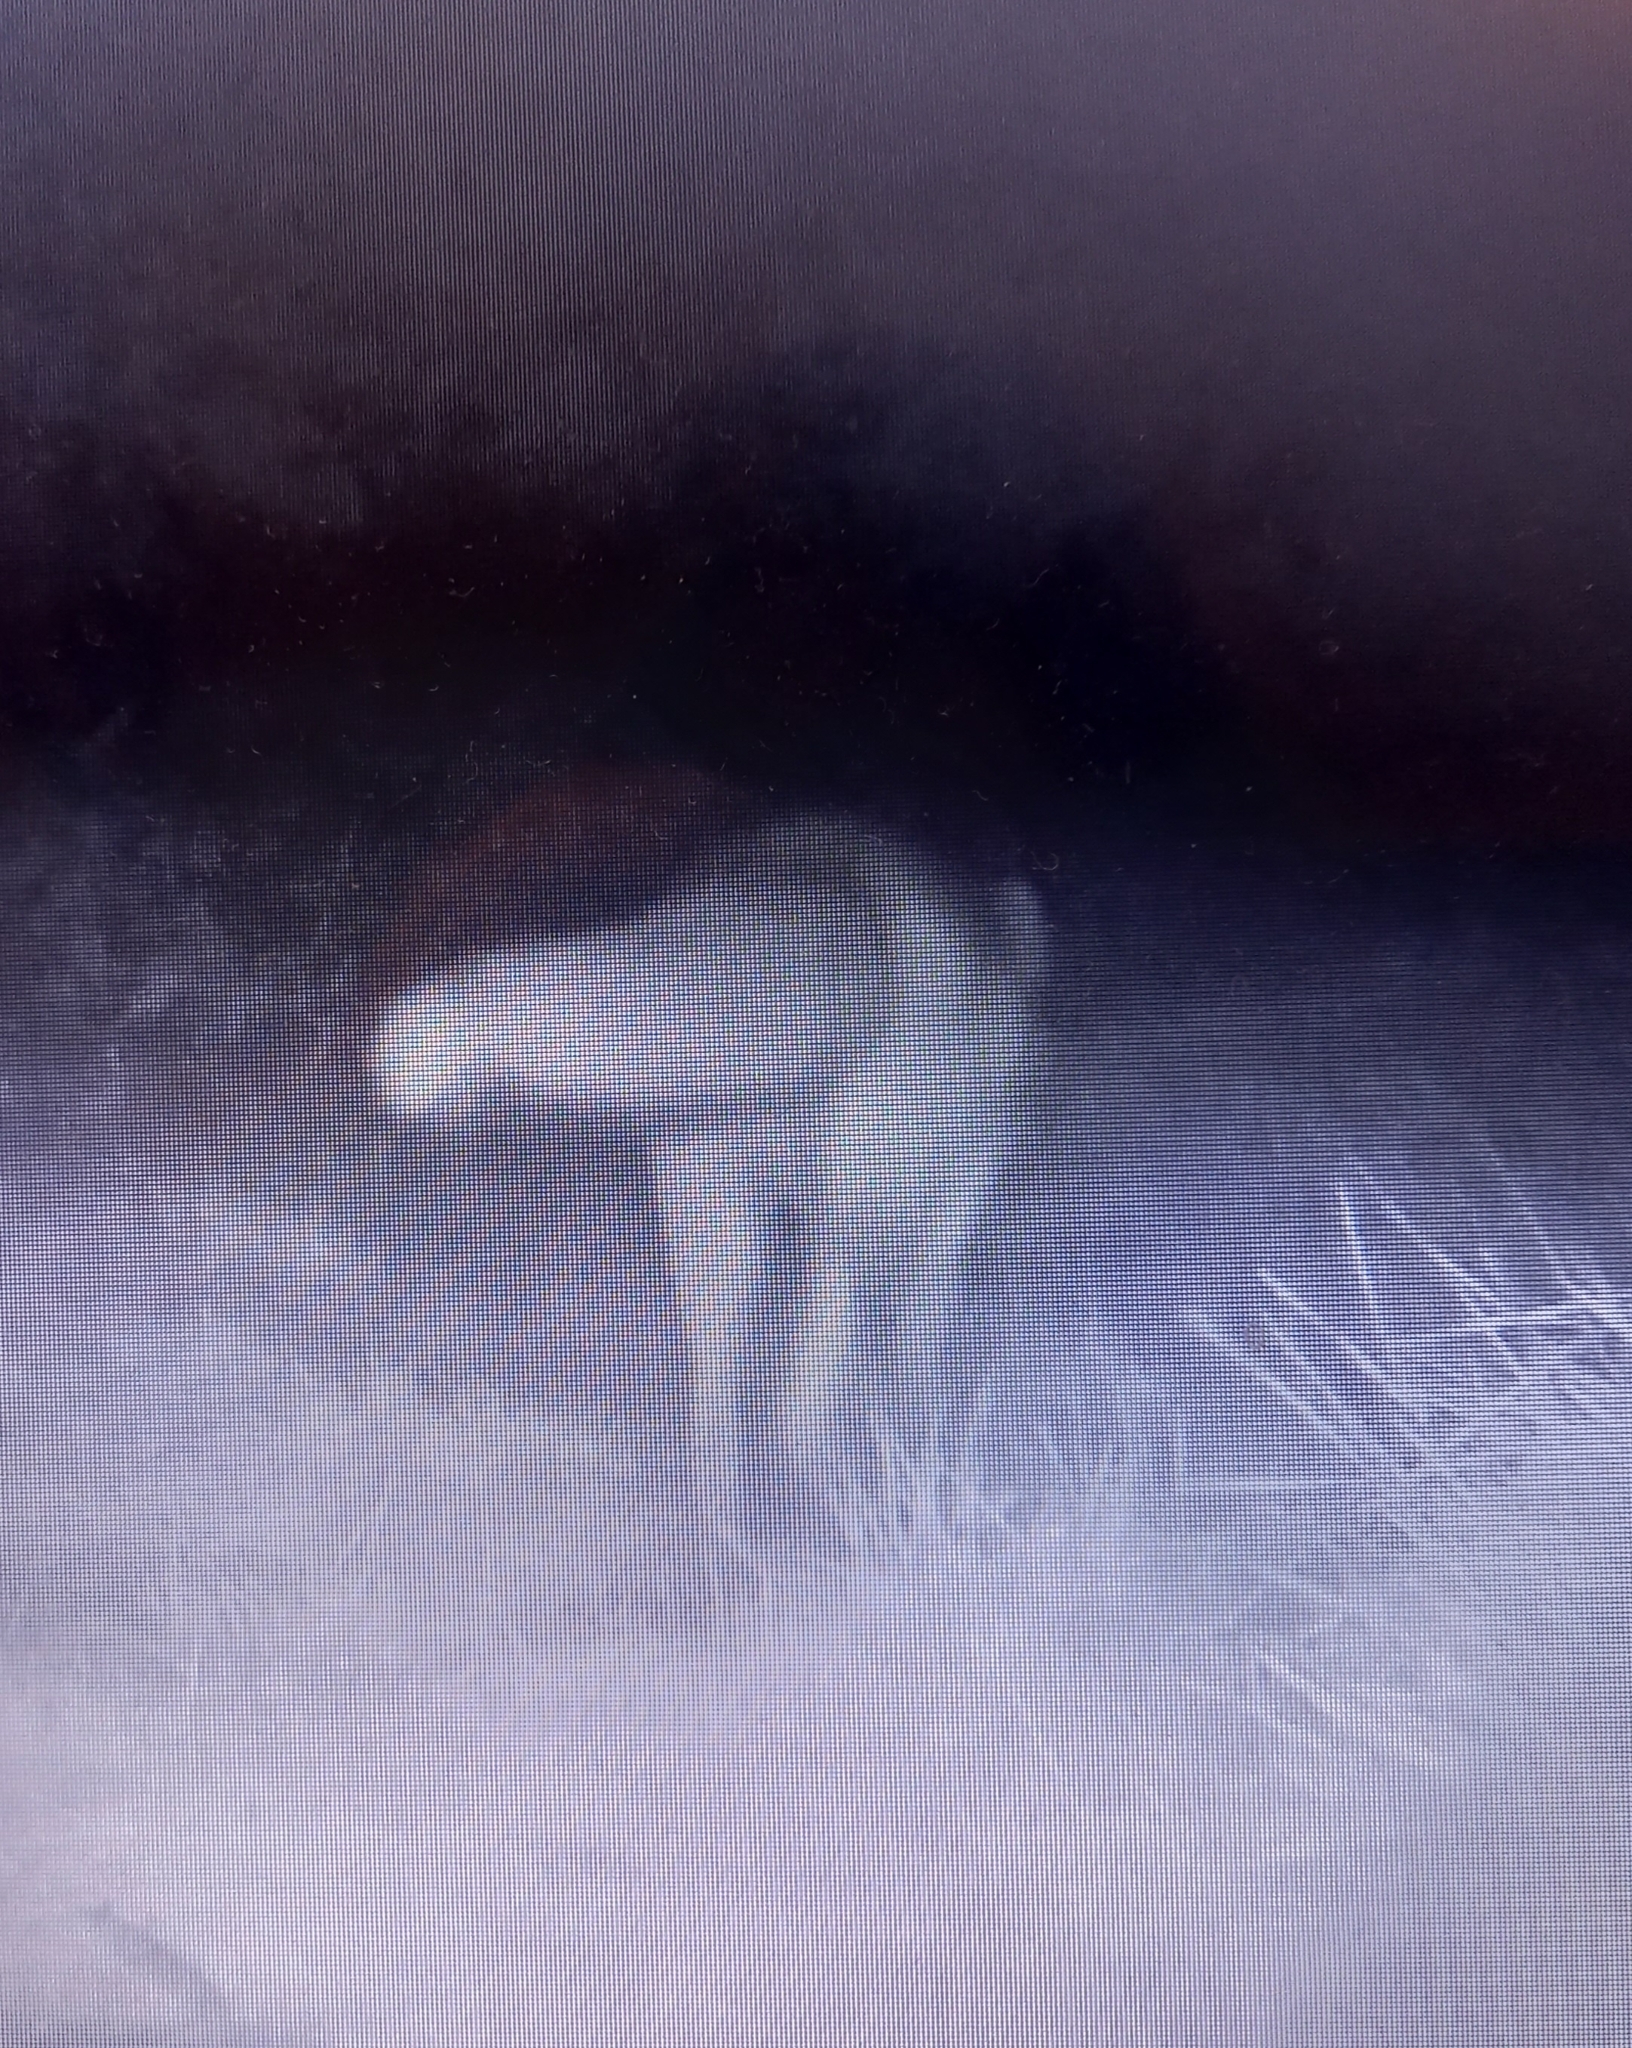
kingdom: Animalia
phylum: Chordata
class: Mammalia
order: Carnivora
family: Canidae
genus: Vulpes
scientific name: Vulpes vulpes
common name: Red fox
